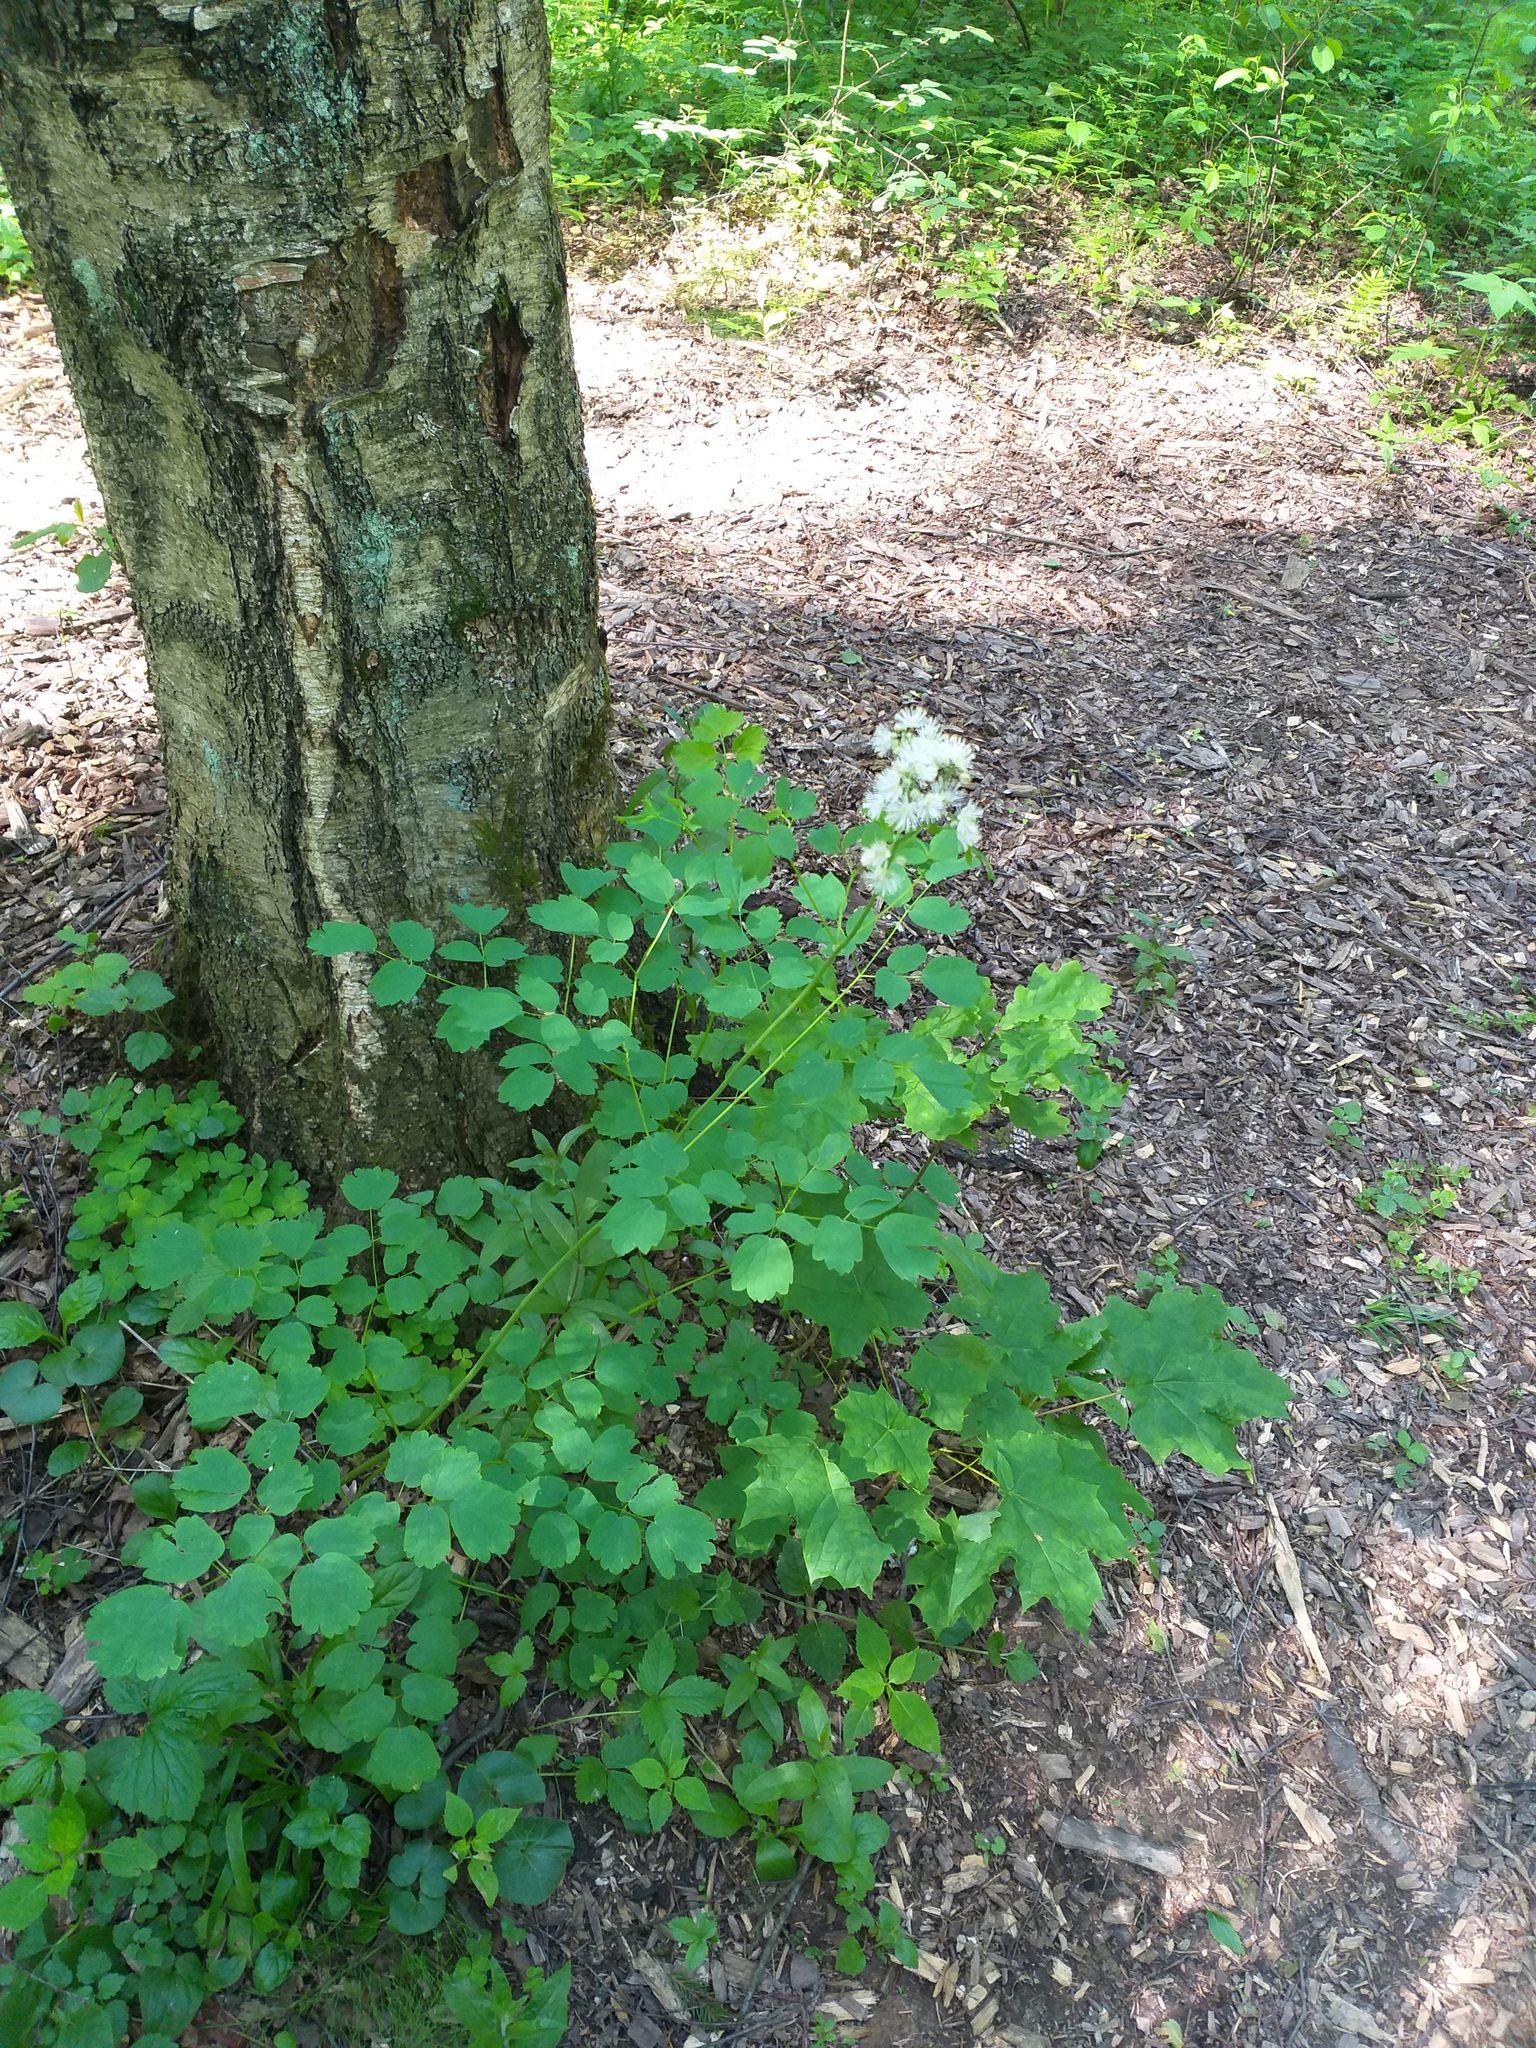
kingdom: Plantae
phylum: Tracheophyta
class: Magnoliopsida
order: Ranunculales
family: Ranunculaceae
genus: Thalictrum
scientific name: Thalictrum aquilegiifolium
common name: French meadow-rue
